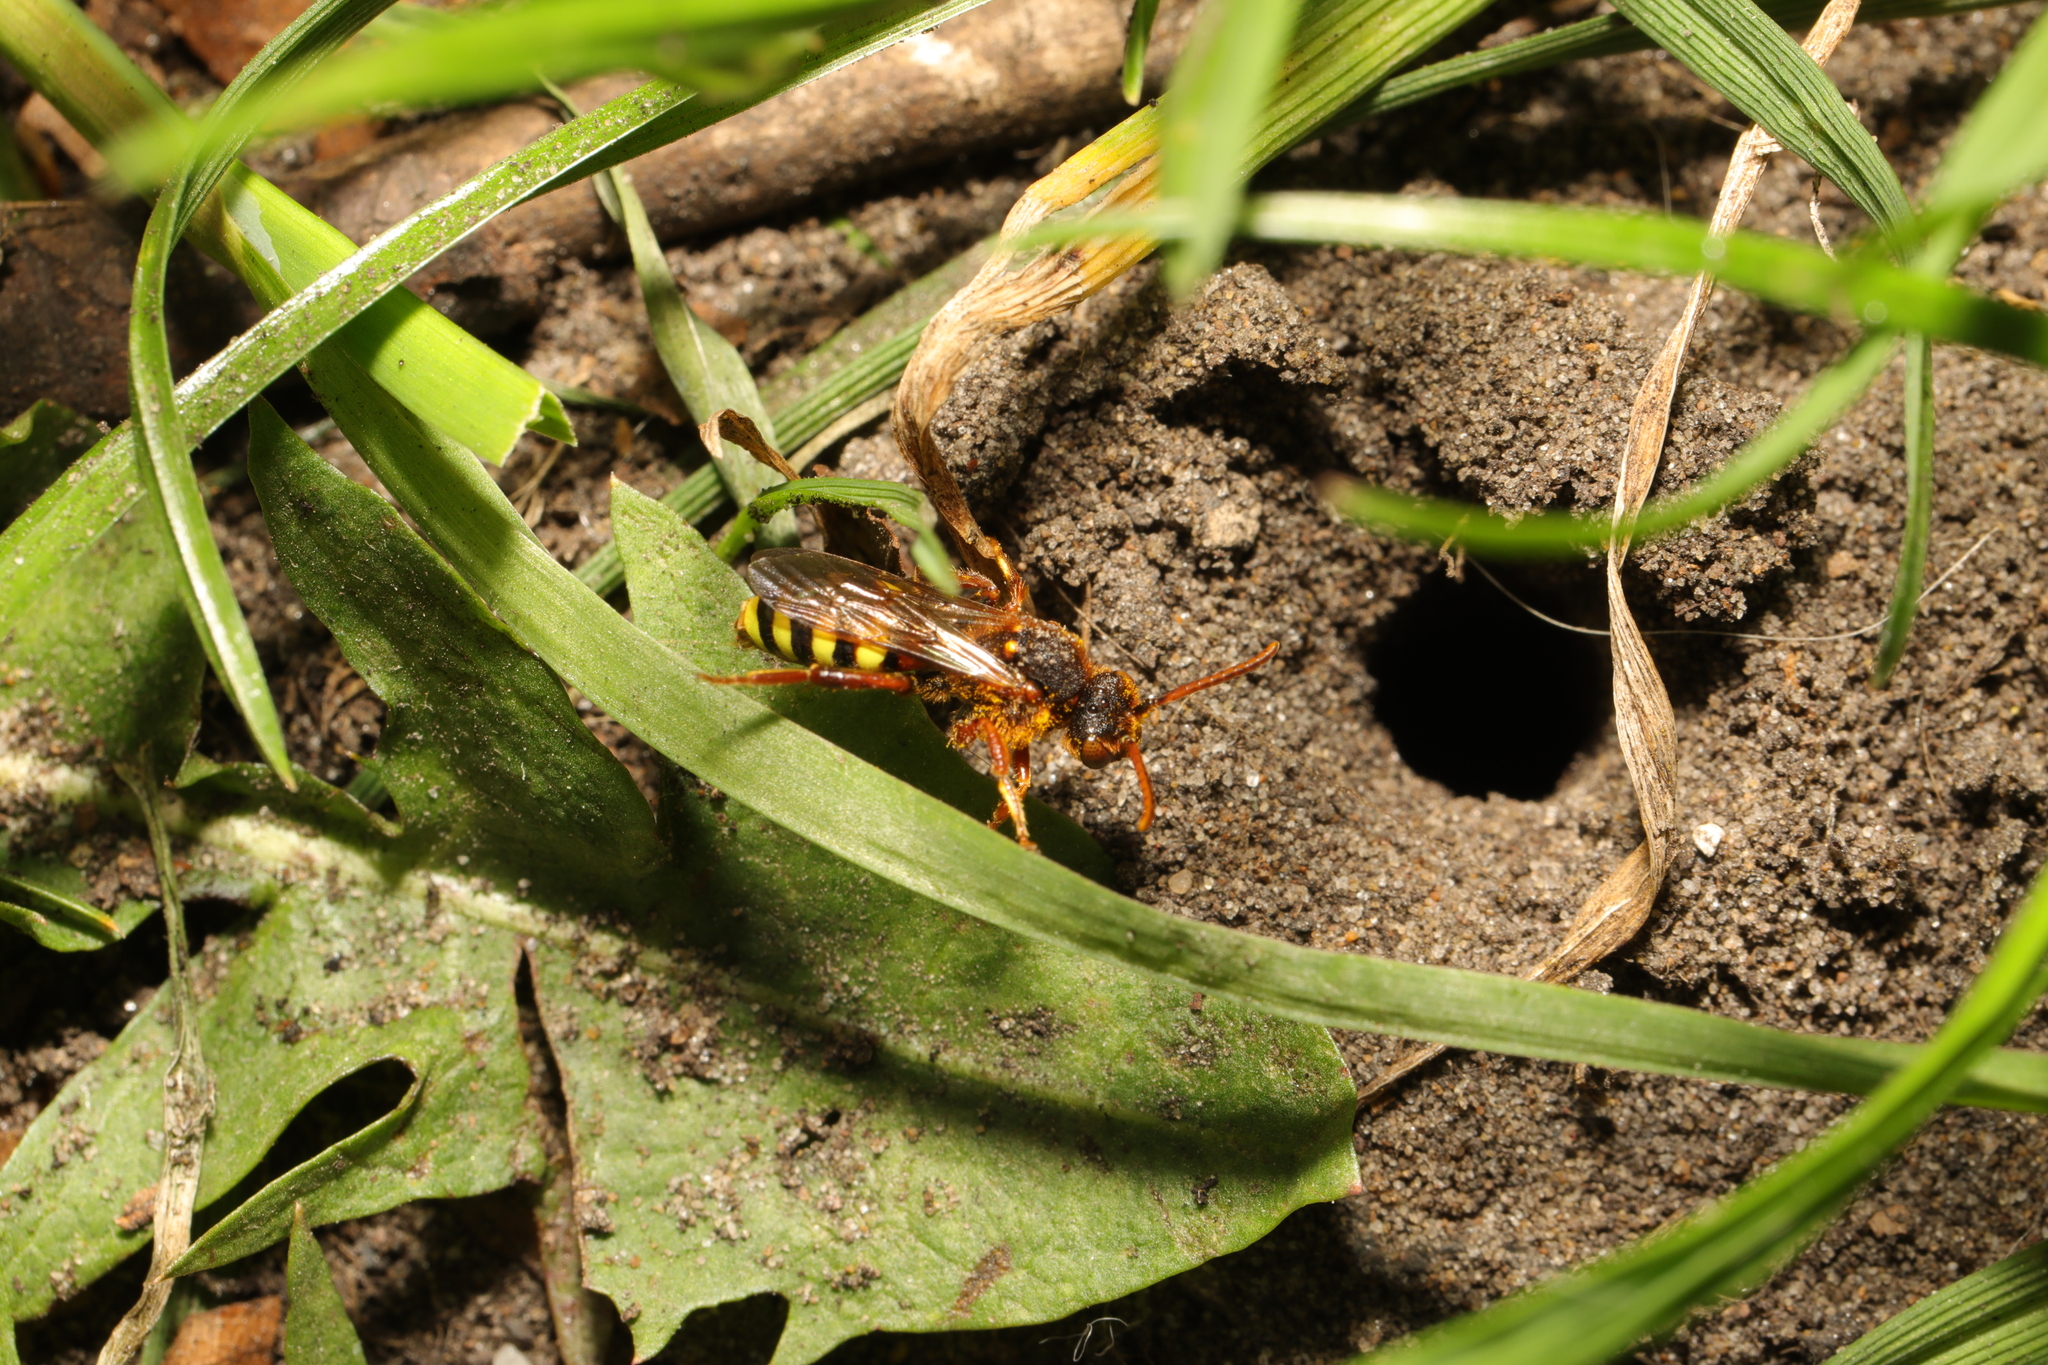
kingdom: Animalia
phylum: Arthropoda
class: Insecta
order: Hymenoptera
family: Apidae
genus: Nomada
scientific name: Nomada lathburiana
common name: Lathbury's nomad bee
